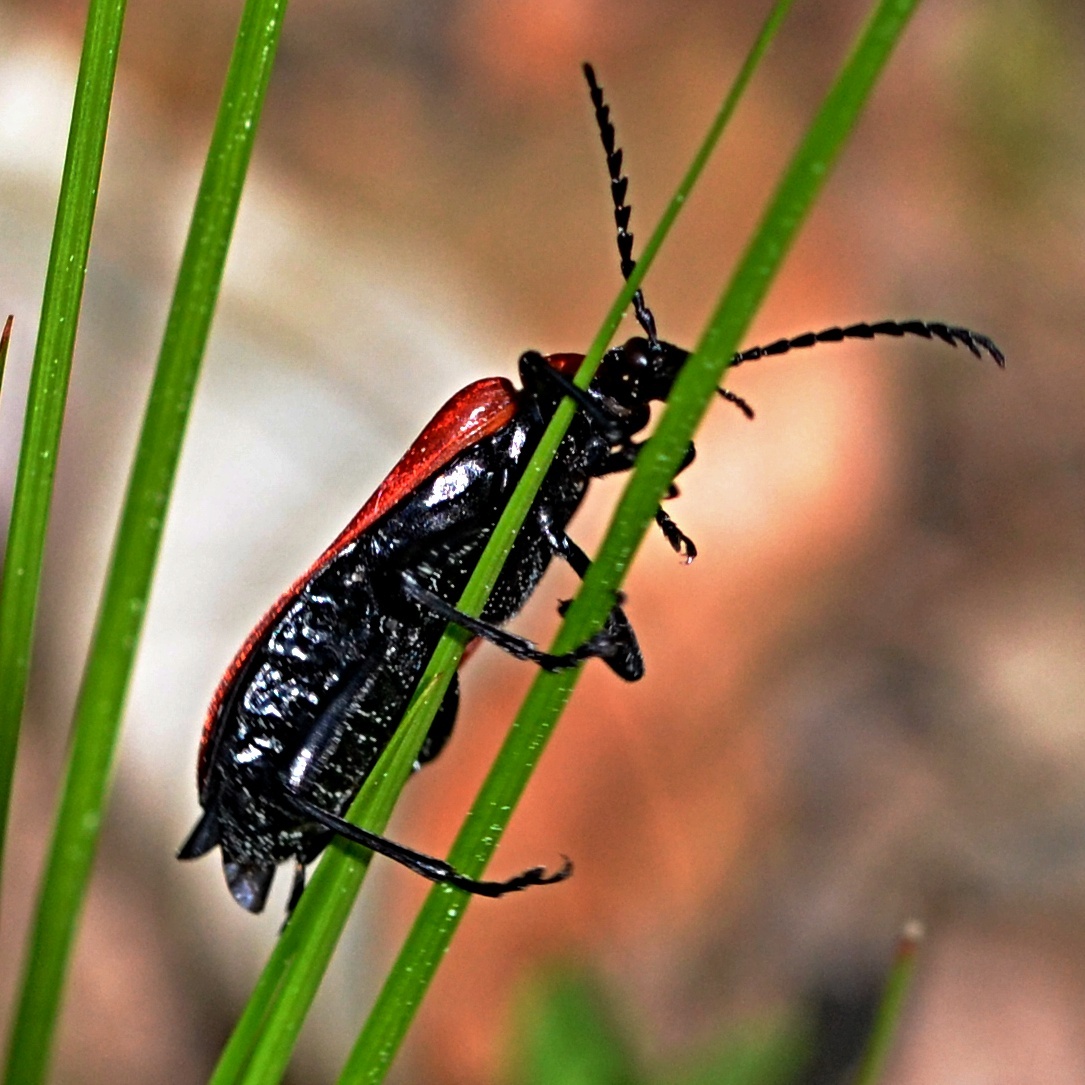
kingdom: Animalia
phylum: Arthropoda
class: Insecta
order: Coleoptera
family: Pyrochroidae
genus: Pyrochroa
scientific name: Pyrochroa coccinea
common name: Black-headed cardinal beetle
